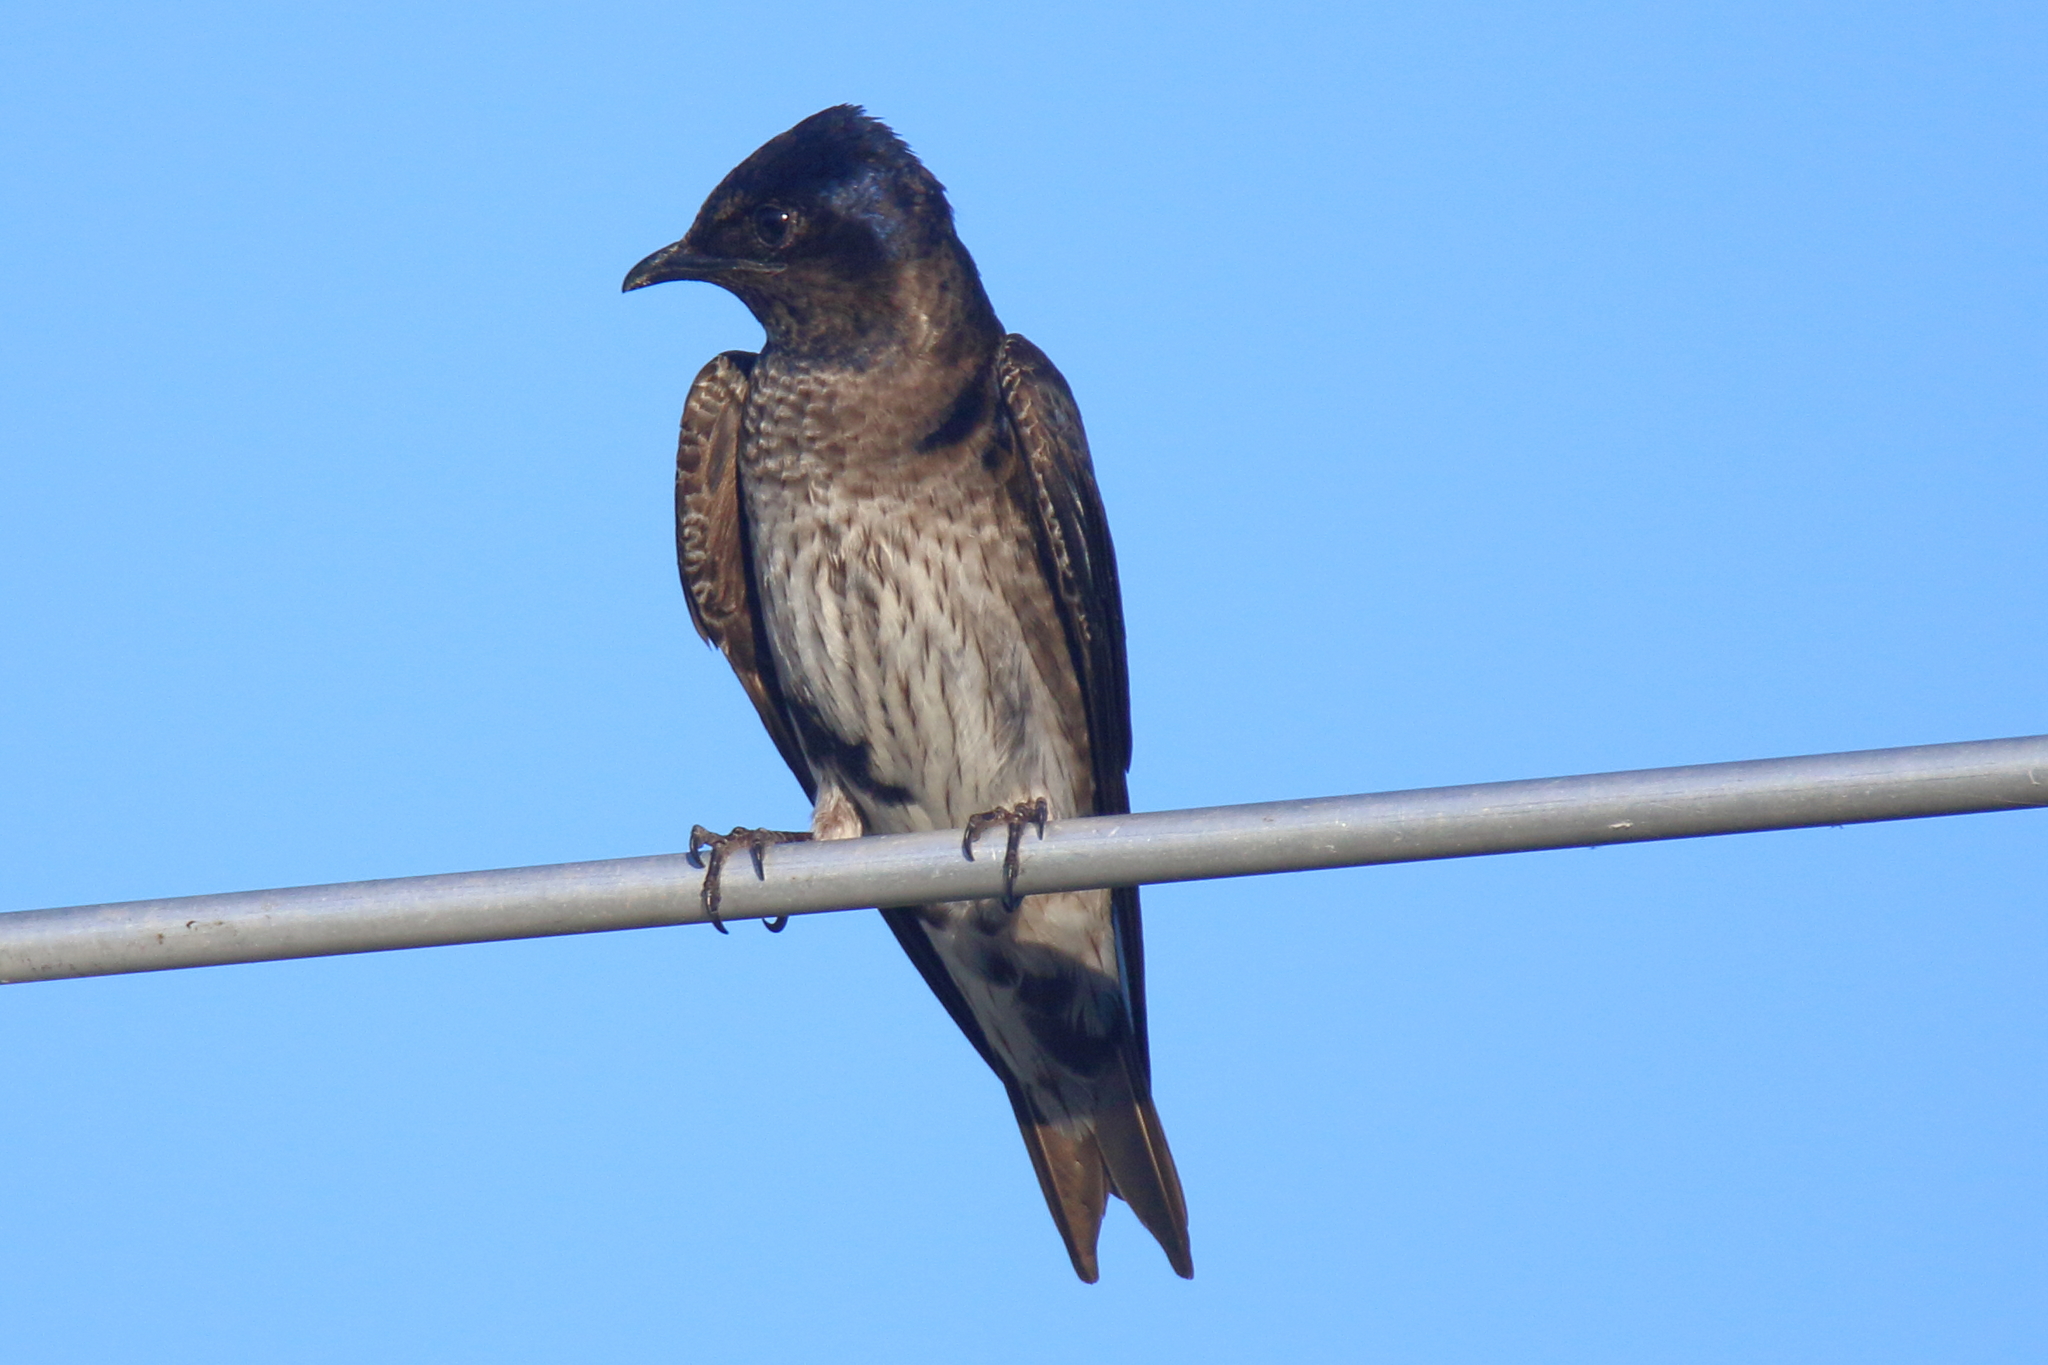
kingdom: Animalia
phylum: Chordata
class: Aves
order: Passeriformes
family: Hirundinidae
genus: Progne
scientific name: Progne subis
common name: Purple martin
